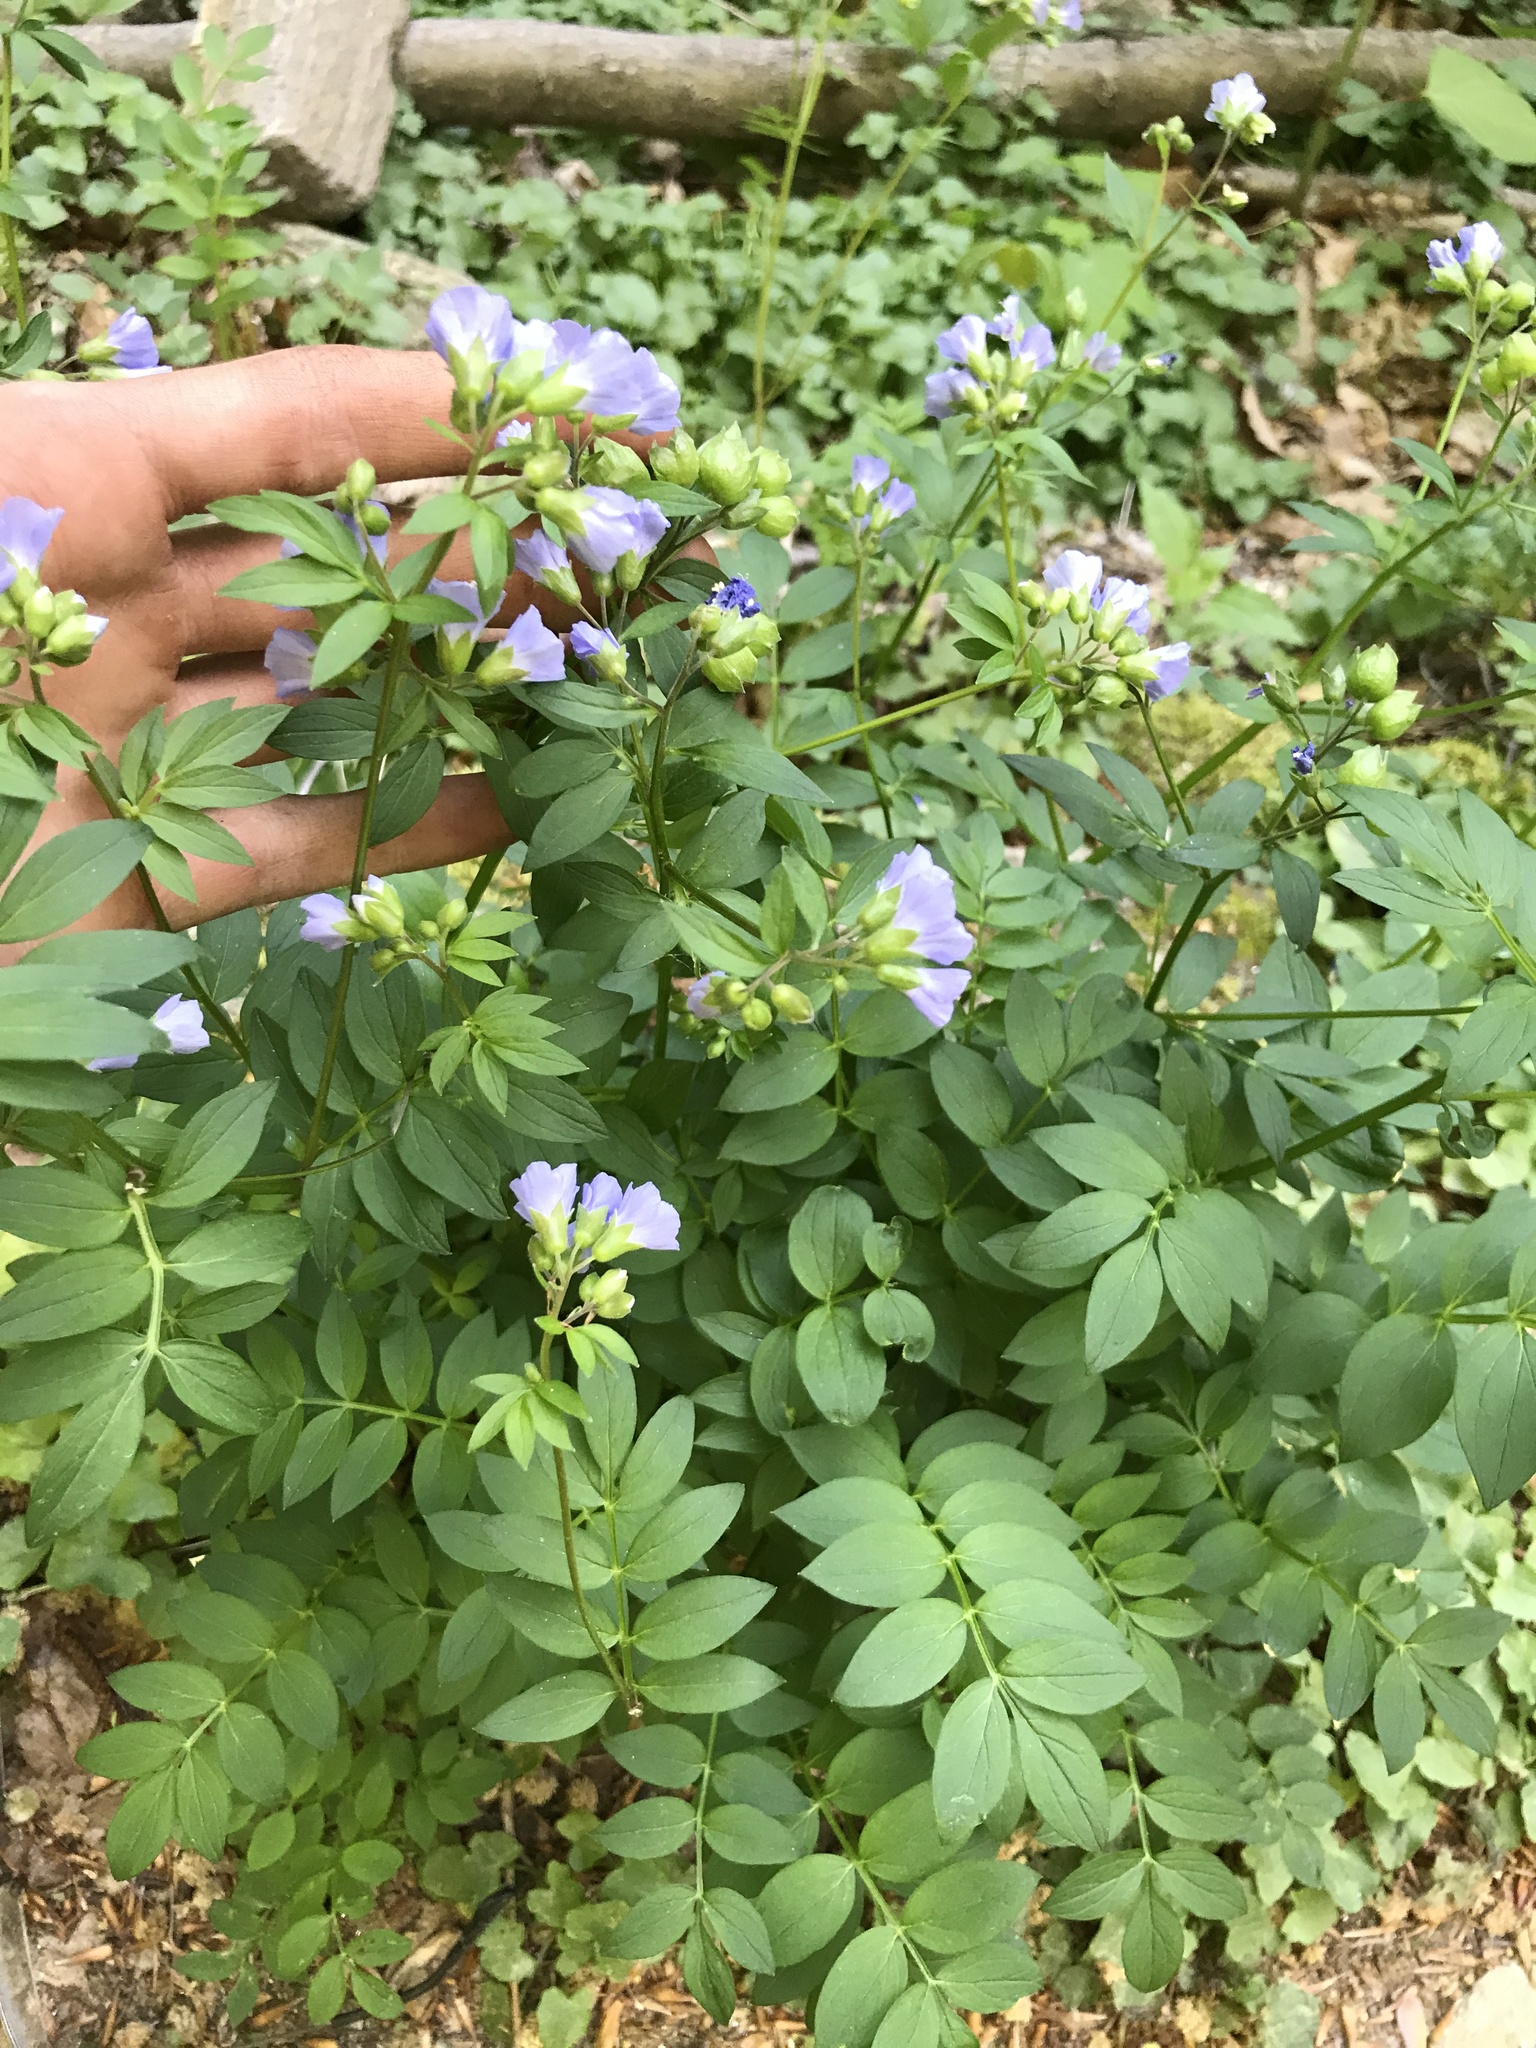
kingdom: Plantae
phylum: Tracheophyta
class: Magnoliopsida
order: Ericales
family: Polemoniaceae
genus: Polemonium
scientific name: Polemonium reptans
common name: Creeping jacob's-ladder
